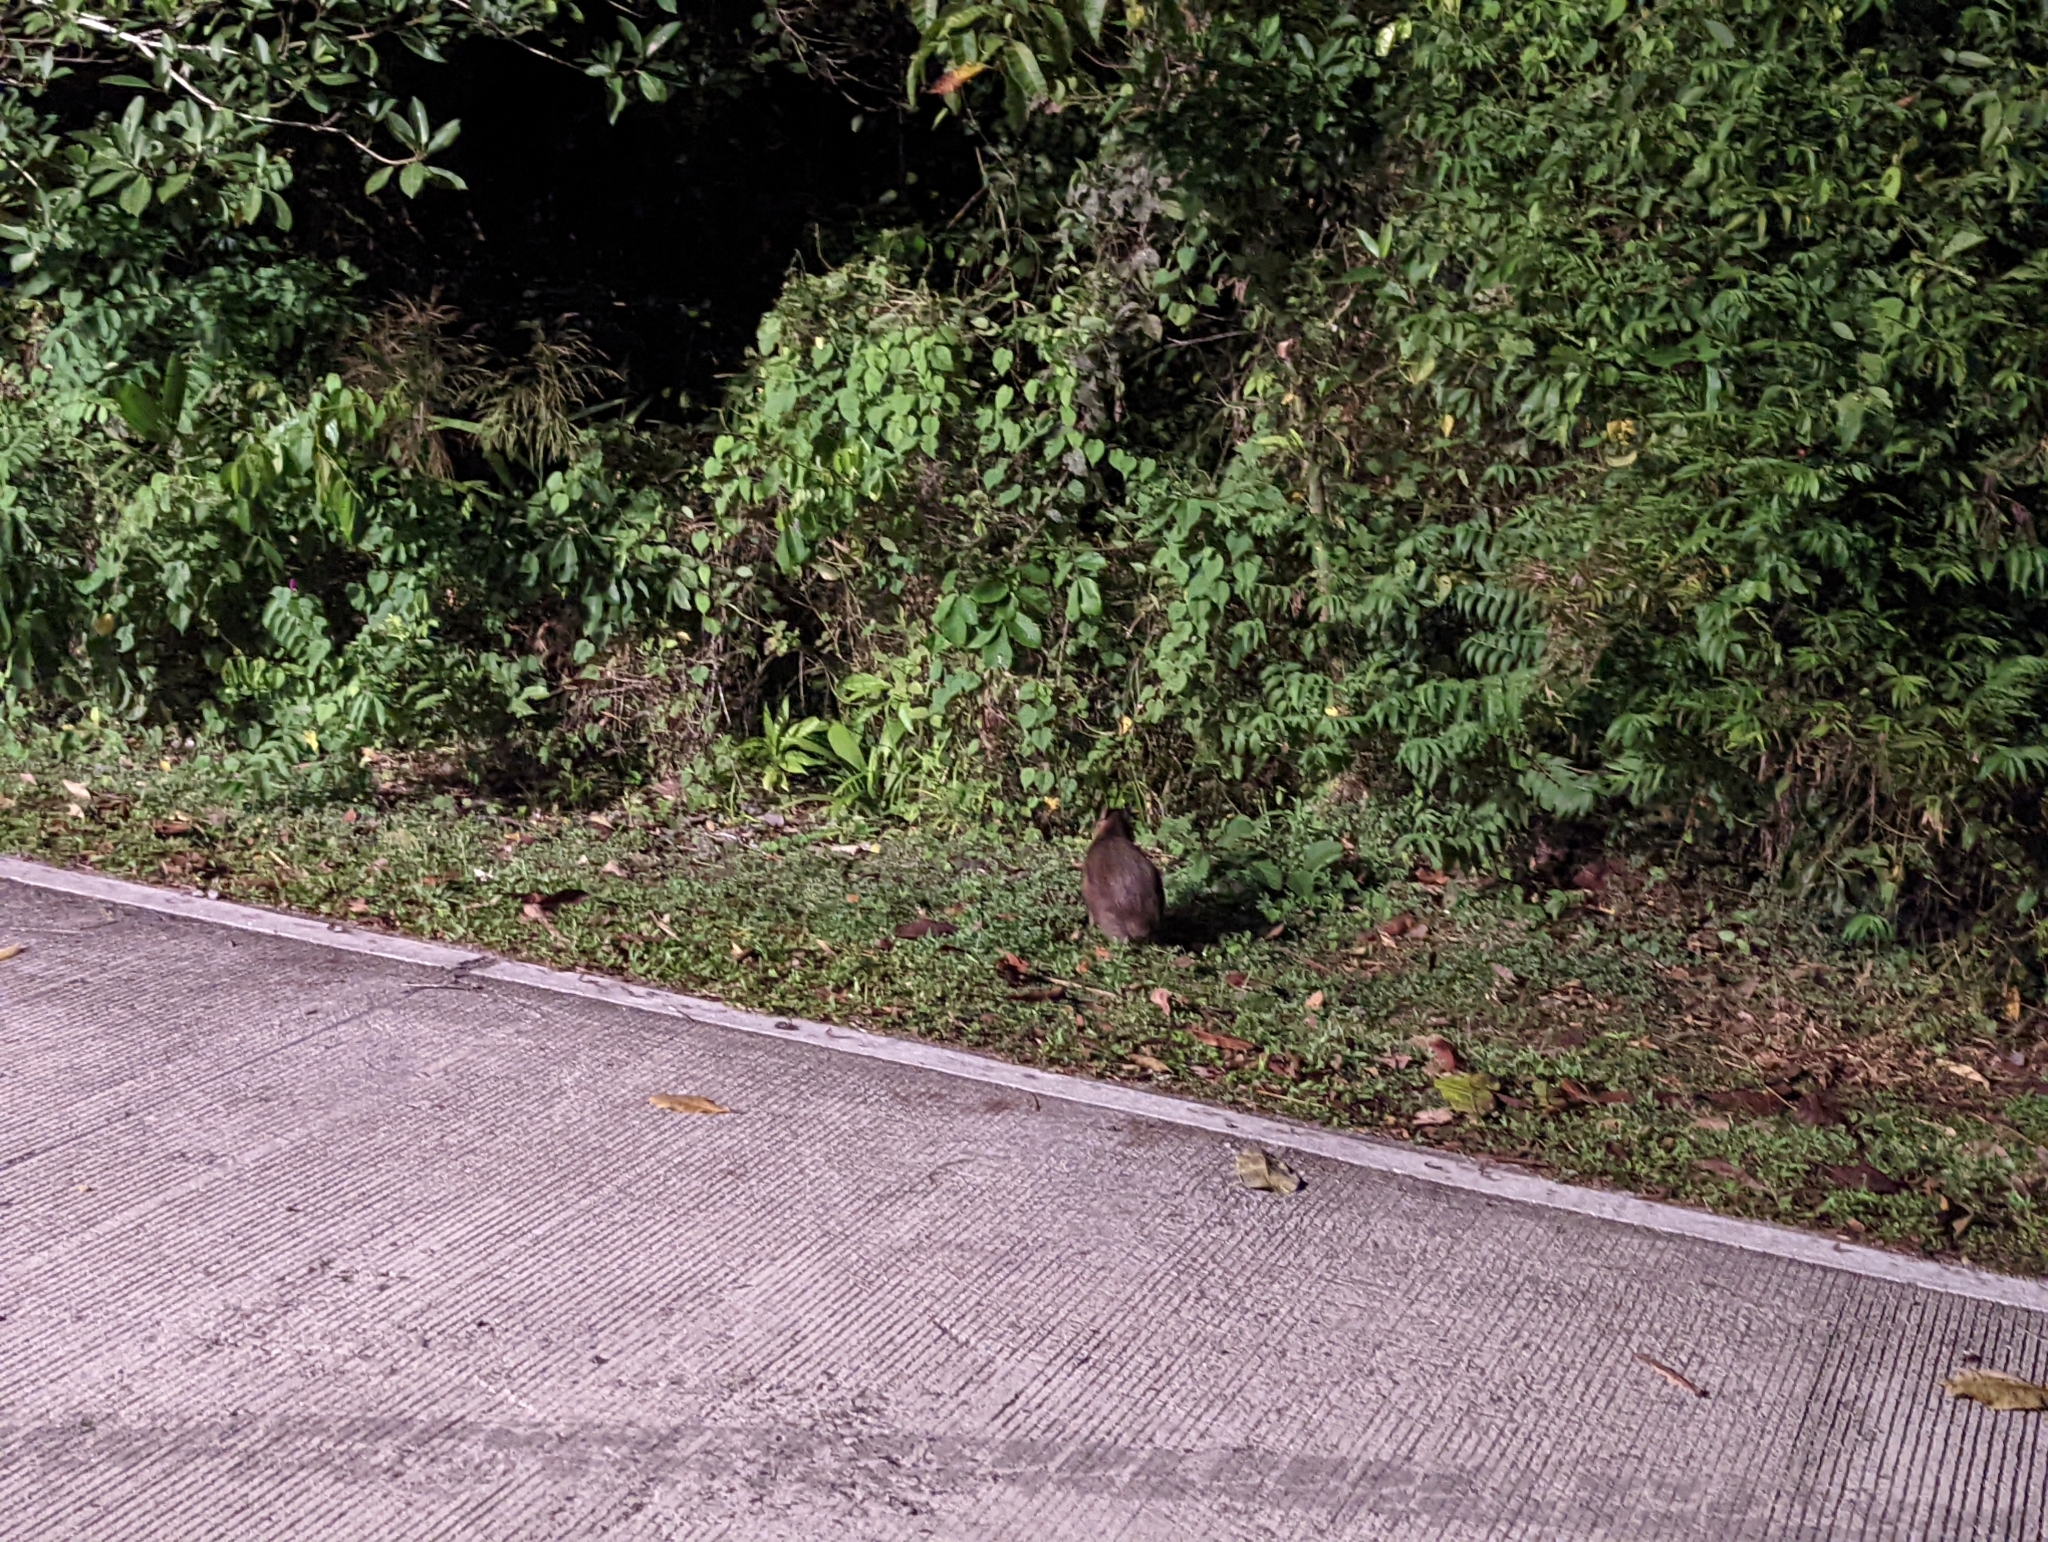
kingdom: Animalia
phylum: Chordata
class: Mammalia
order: Rodentia
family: Caviidae
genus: Hydrochoerus
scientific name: Hydrochoerus isthmius
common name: Lesser capybara
